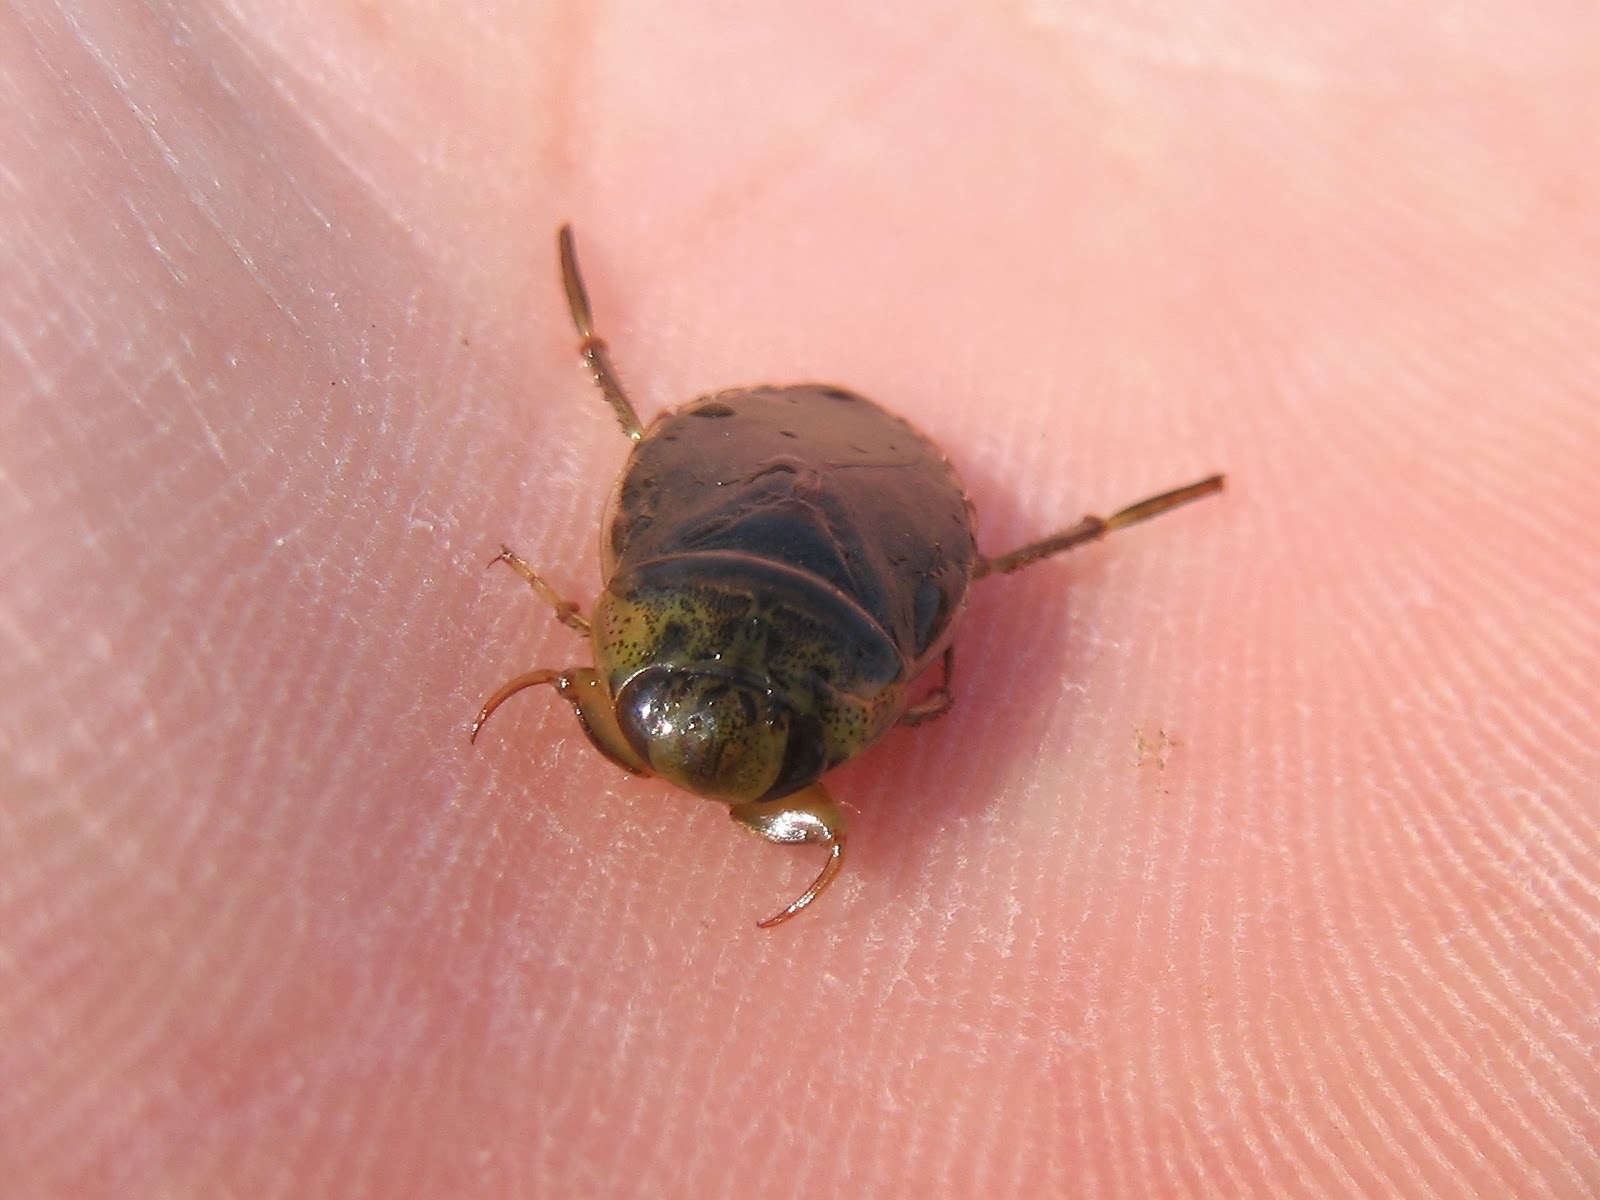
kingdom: Animalia
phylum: Arthropoda
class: Insecta
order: Hemiptera
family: Naucoridae
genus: Ilyocoris
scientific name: Ilyocoris cimicoides
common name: Saucer bugs
